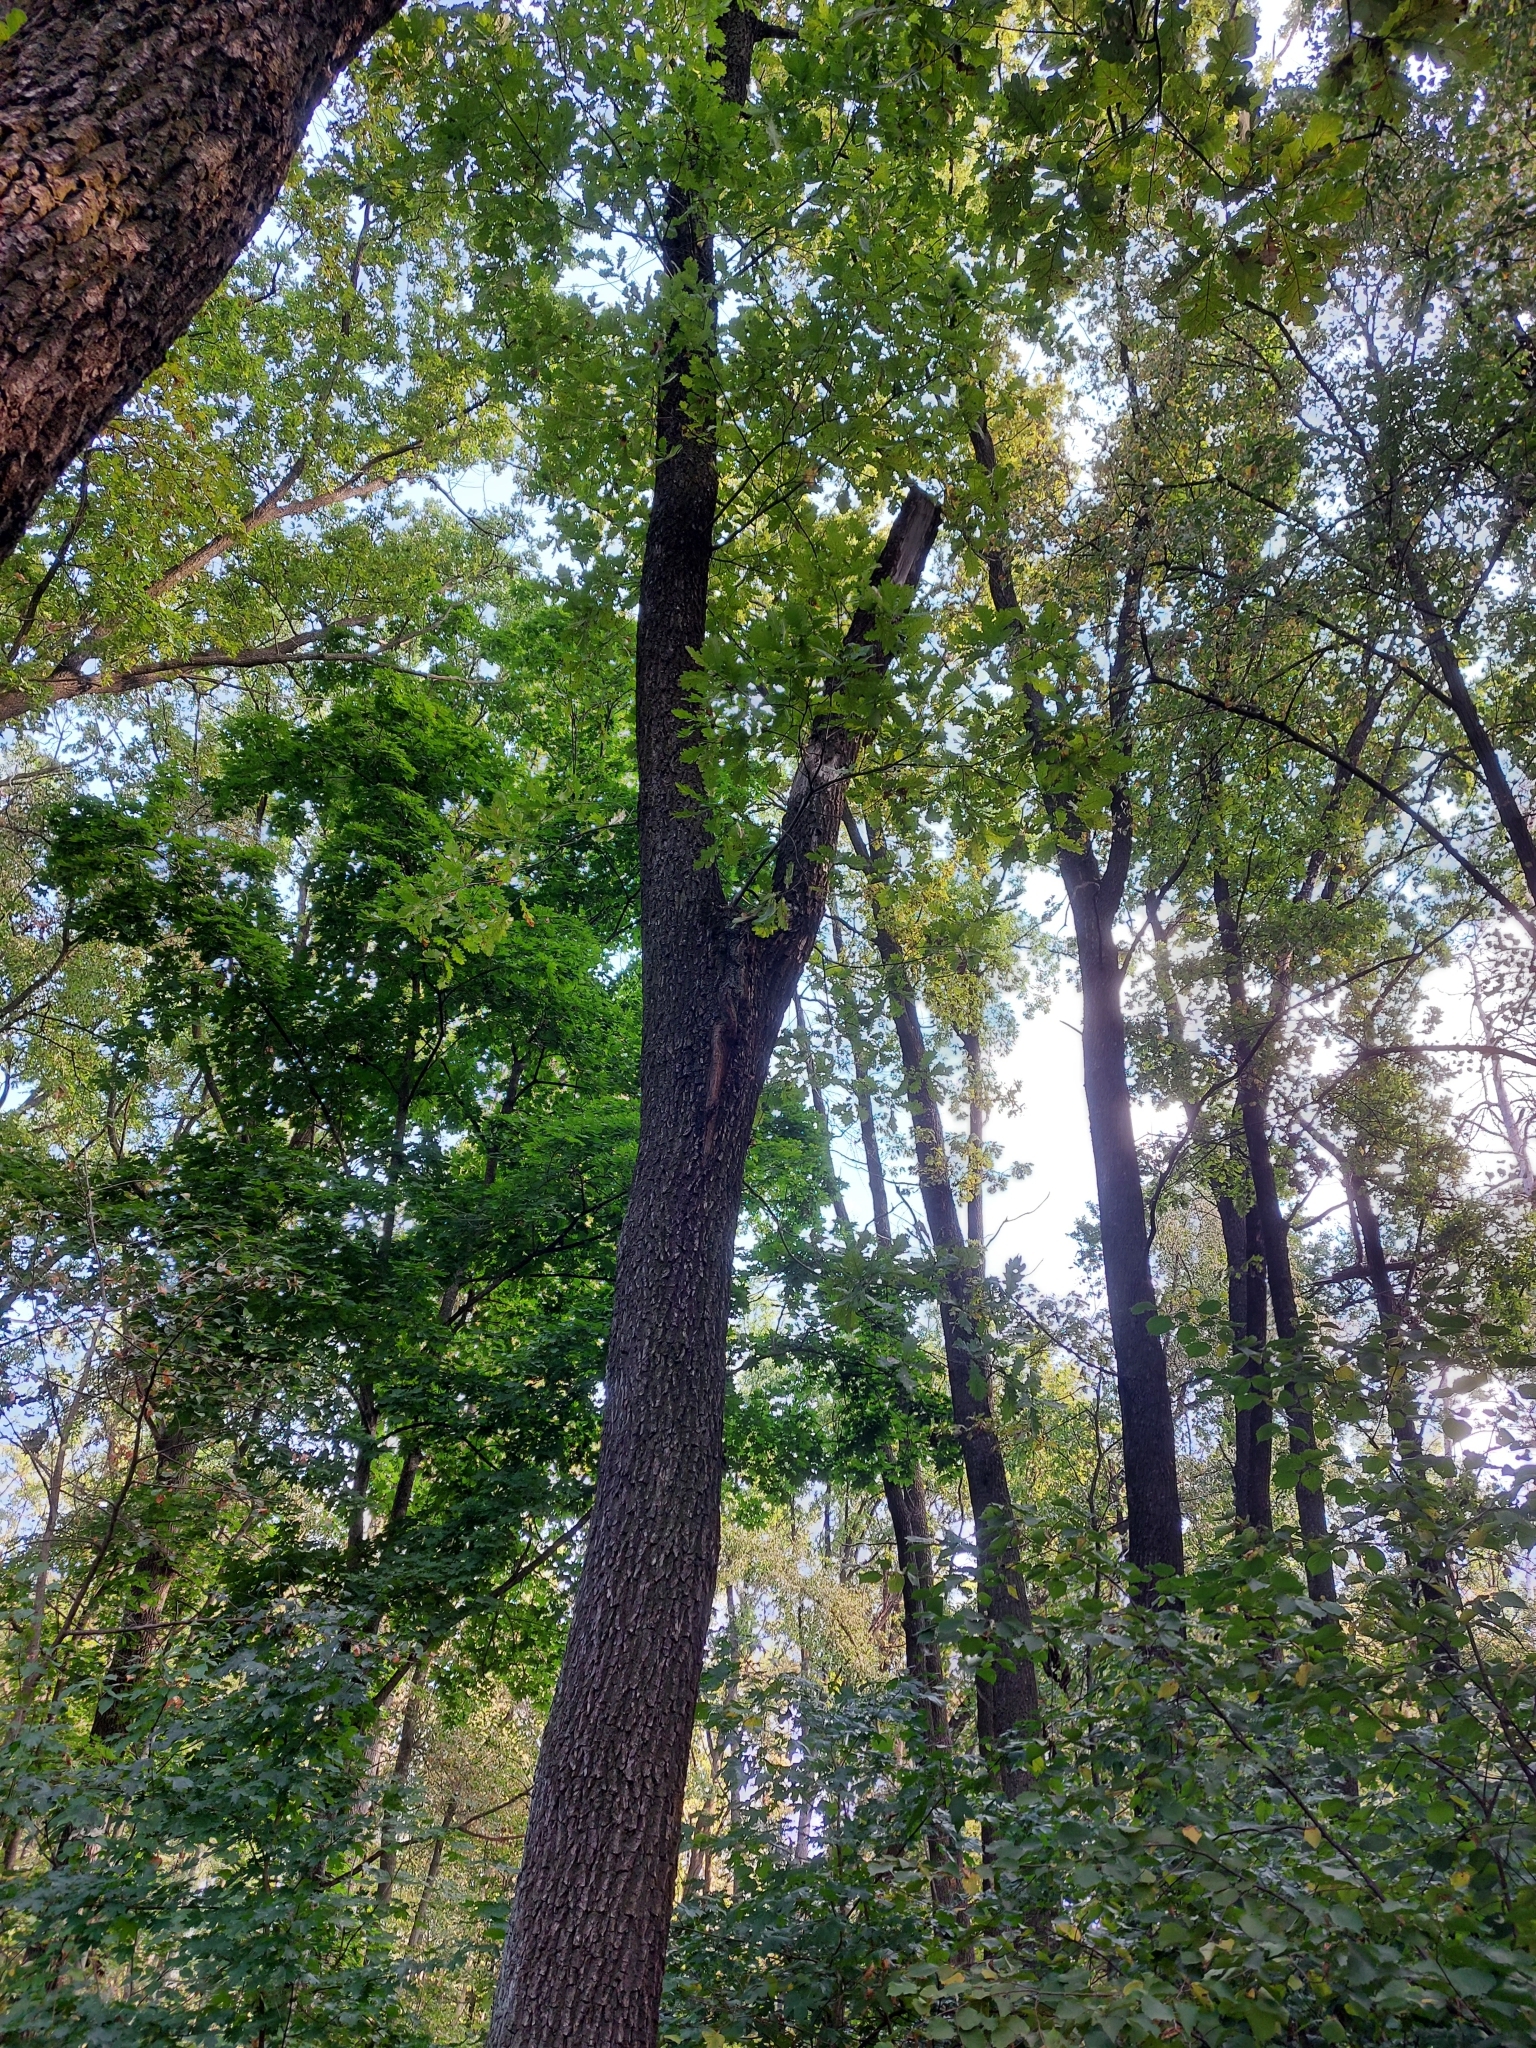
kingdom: Plantae
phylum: Tracheophyta
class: Magnoliopsida
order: Fagales
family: Fagaceae
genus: Quercus
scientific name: Quercus robur
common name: Pedunculate oak
